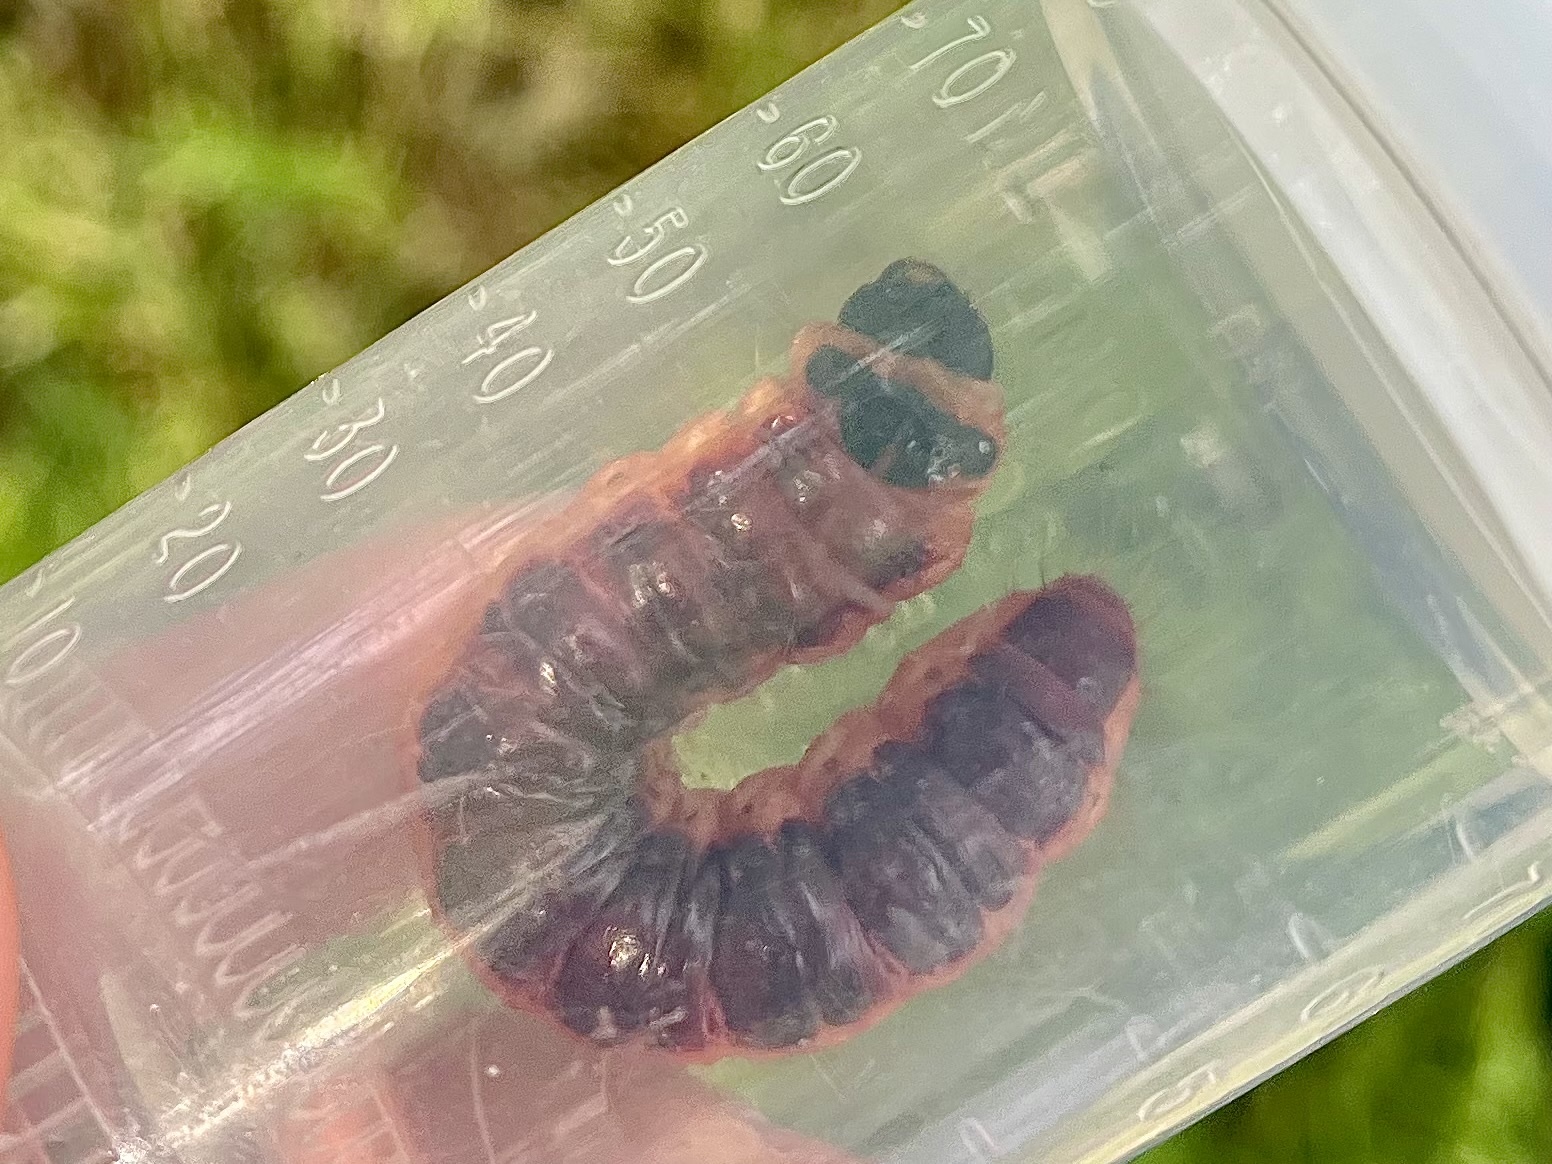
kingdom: Animalia
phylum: Arthropoda
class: Insecta
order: Lepidoptera
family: Cossidae
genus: Cossus
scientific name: Cossus cossus
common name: Goat moth
